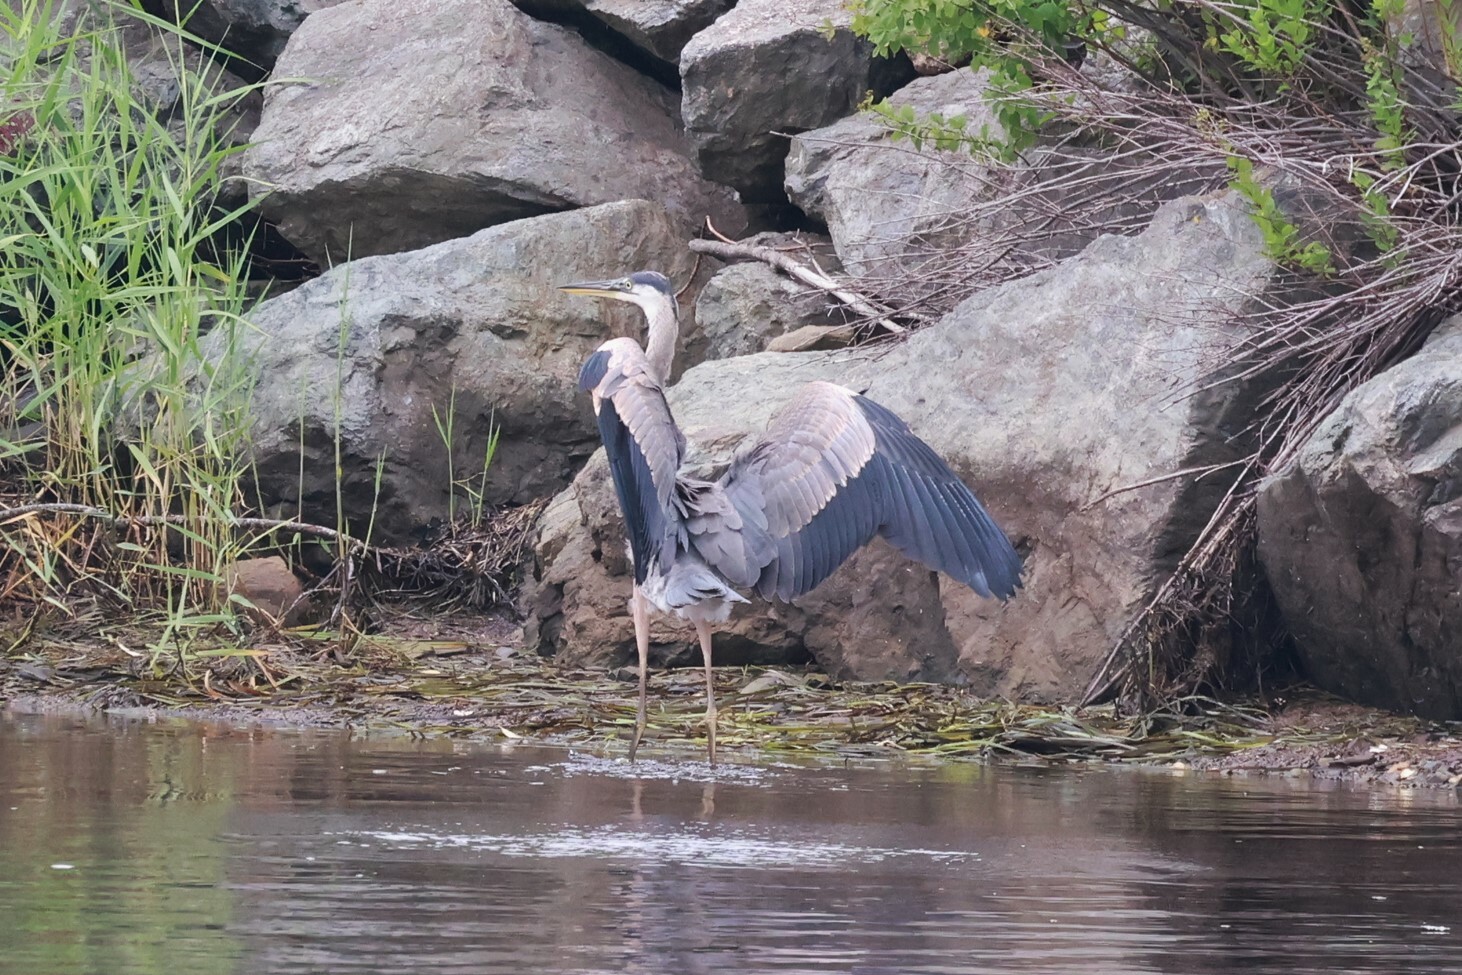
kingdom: Animalia
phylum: Chordata
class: Aves
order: Pelecaniformes
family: Ardeidae
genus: Ardea
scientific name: Ardea herodias
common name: Great blue heron
